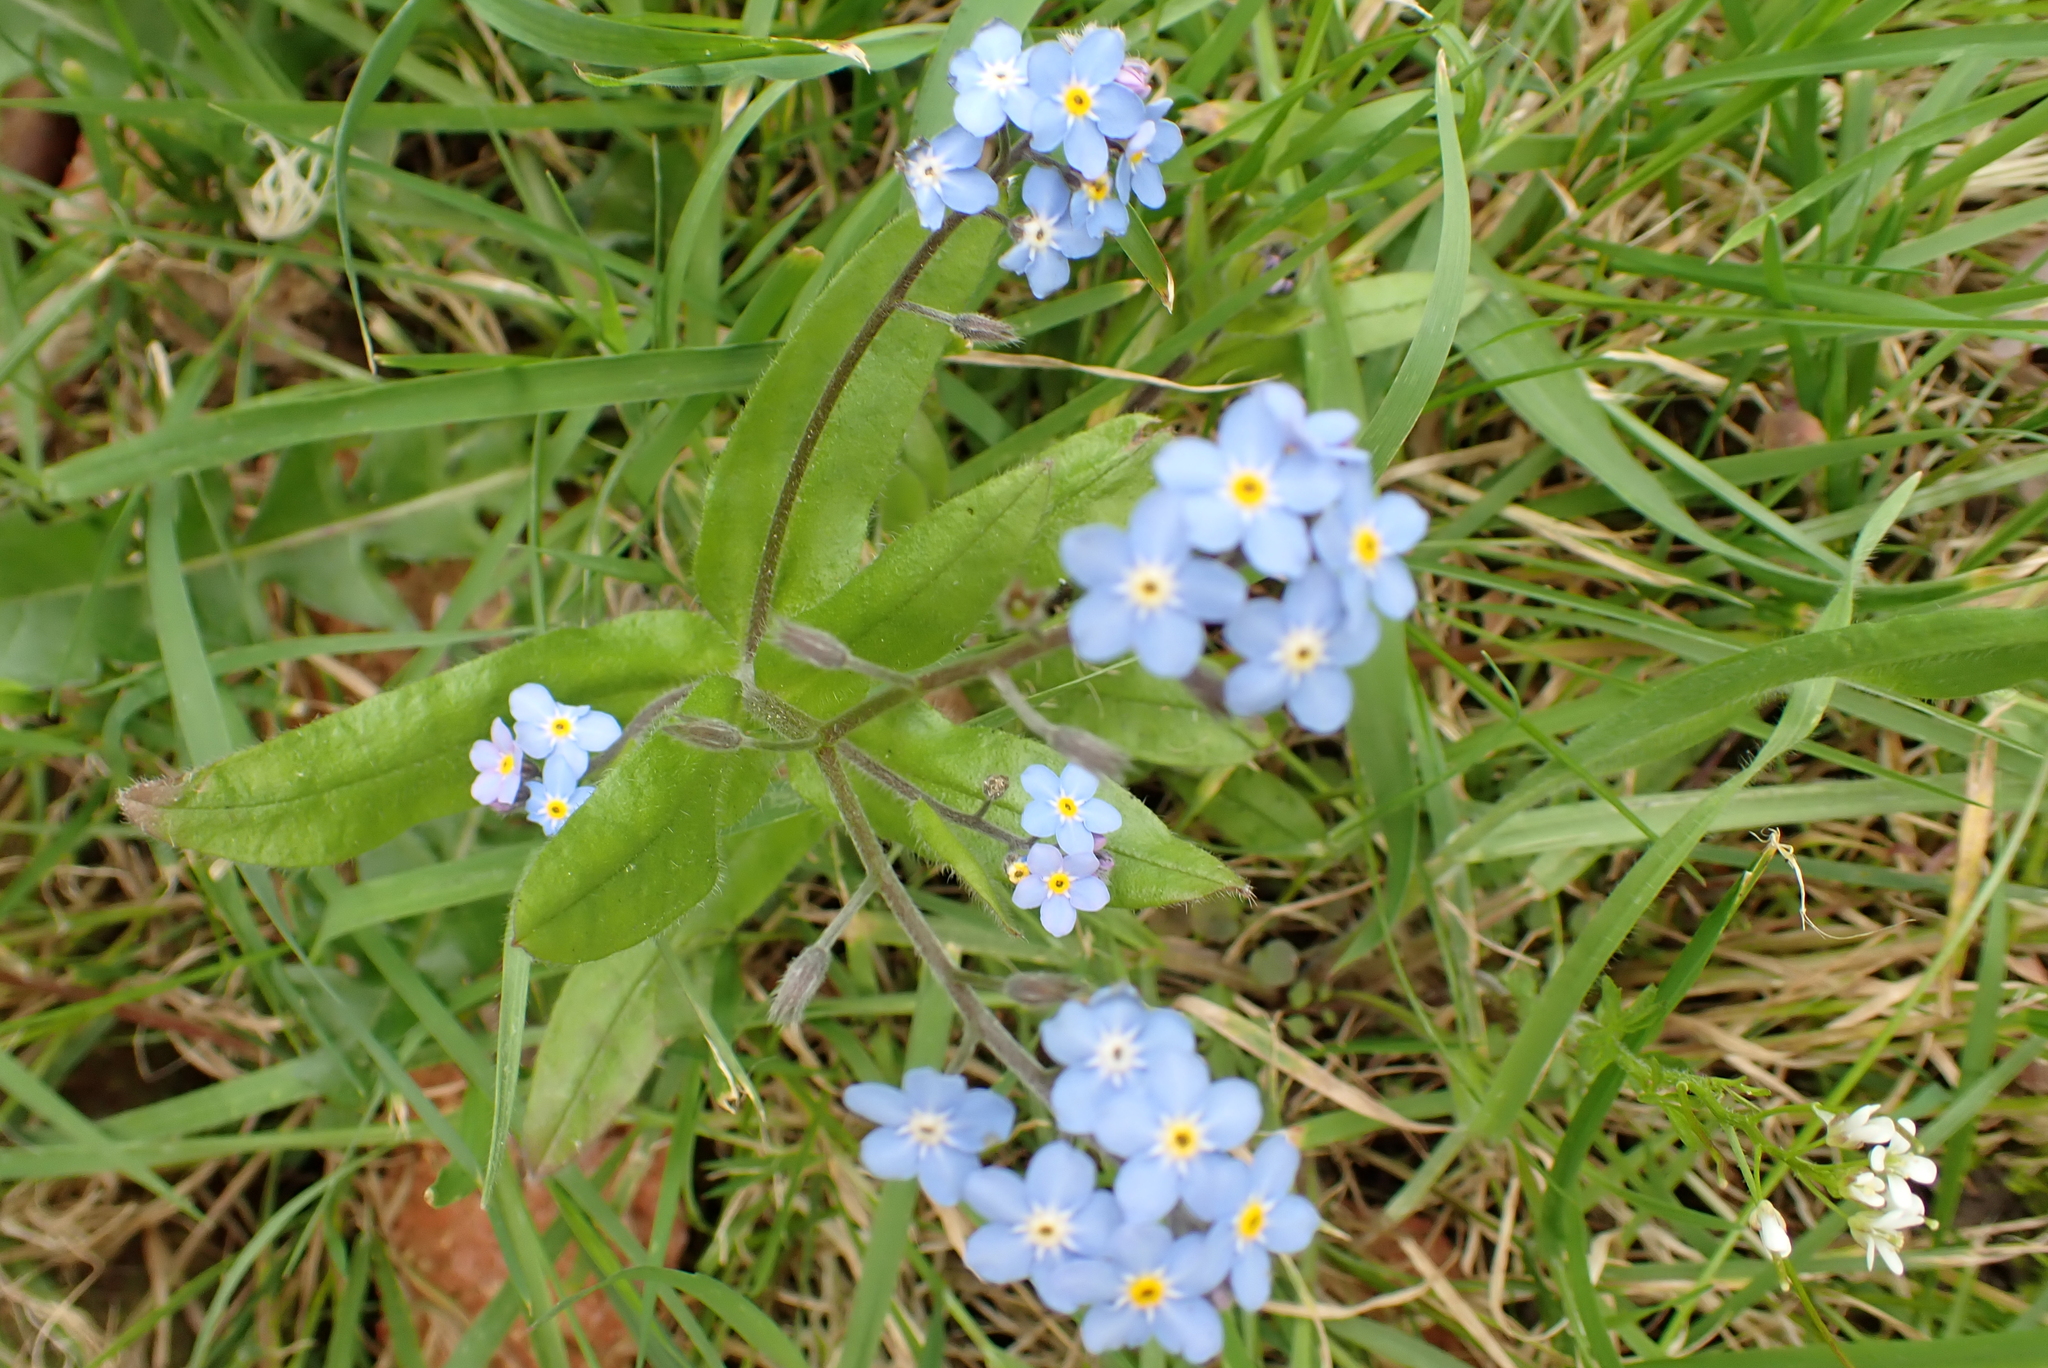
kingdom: Plantae
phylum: Tracheophyta
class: Magnoliopsida
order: Boraginales
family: Boraginaceae
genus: Myosotis
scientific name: Myosotis sylvatica
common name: Wood forget-me-not
